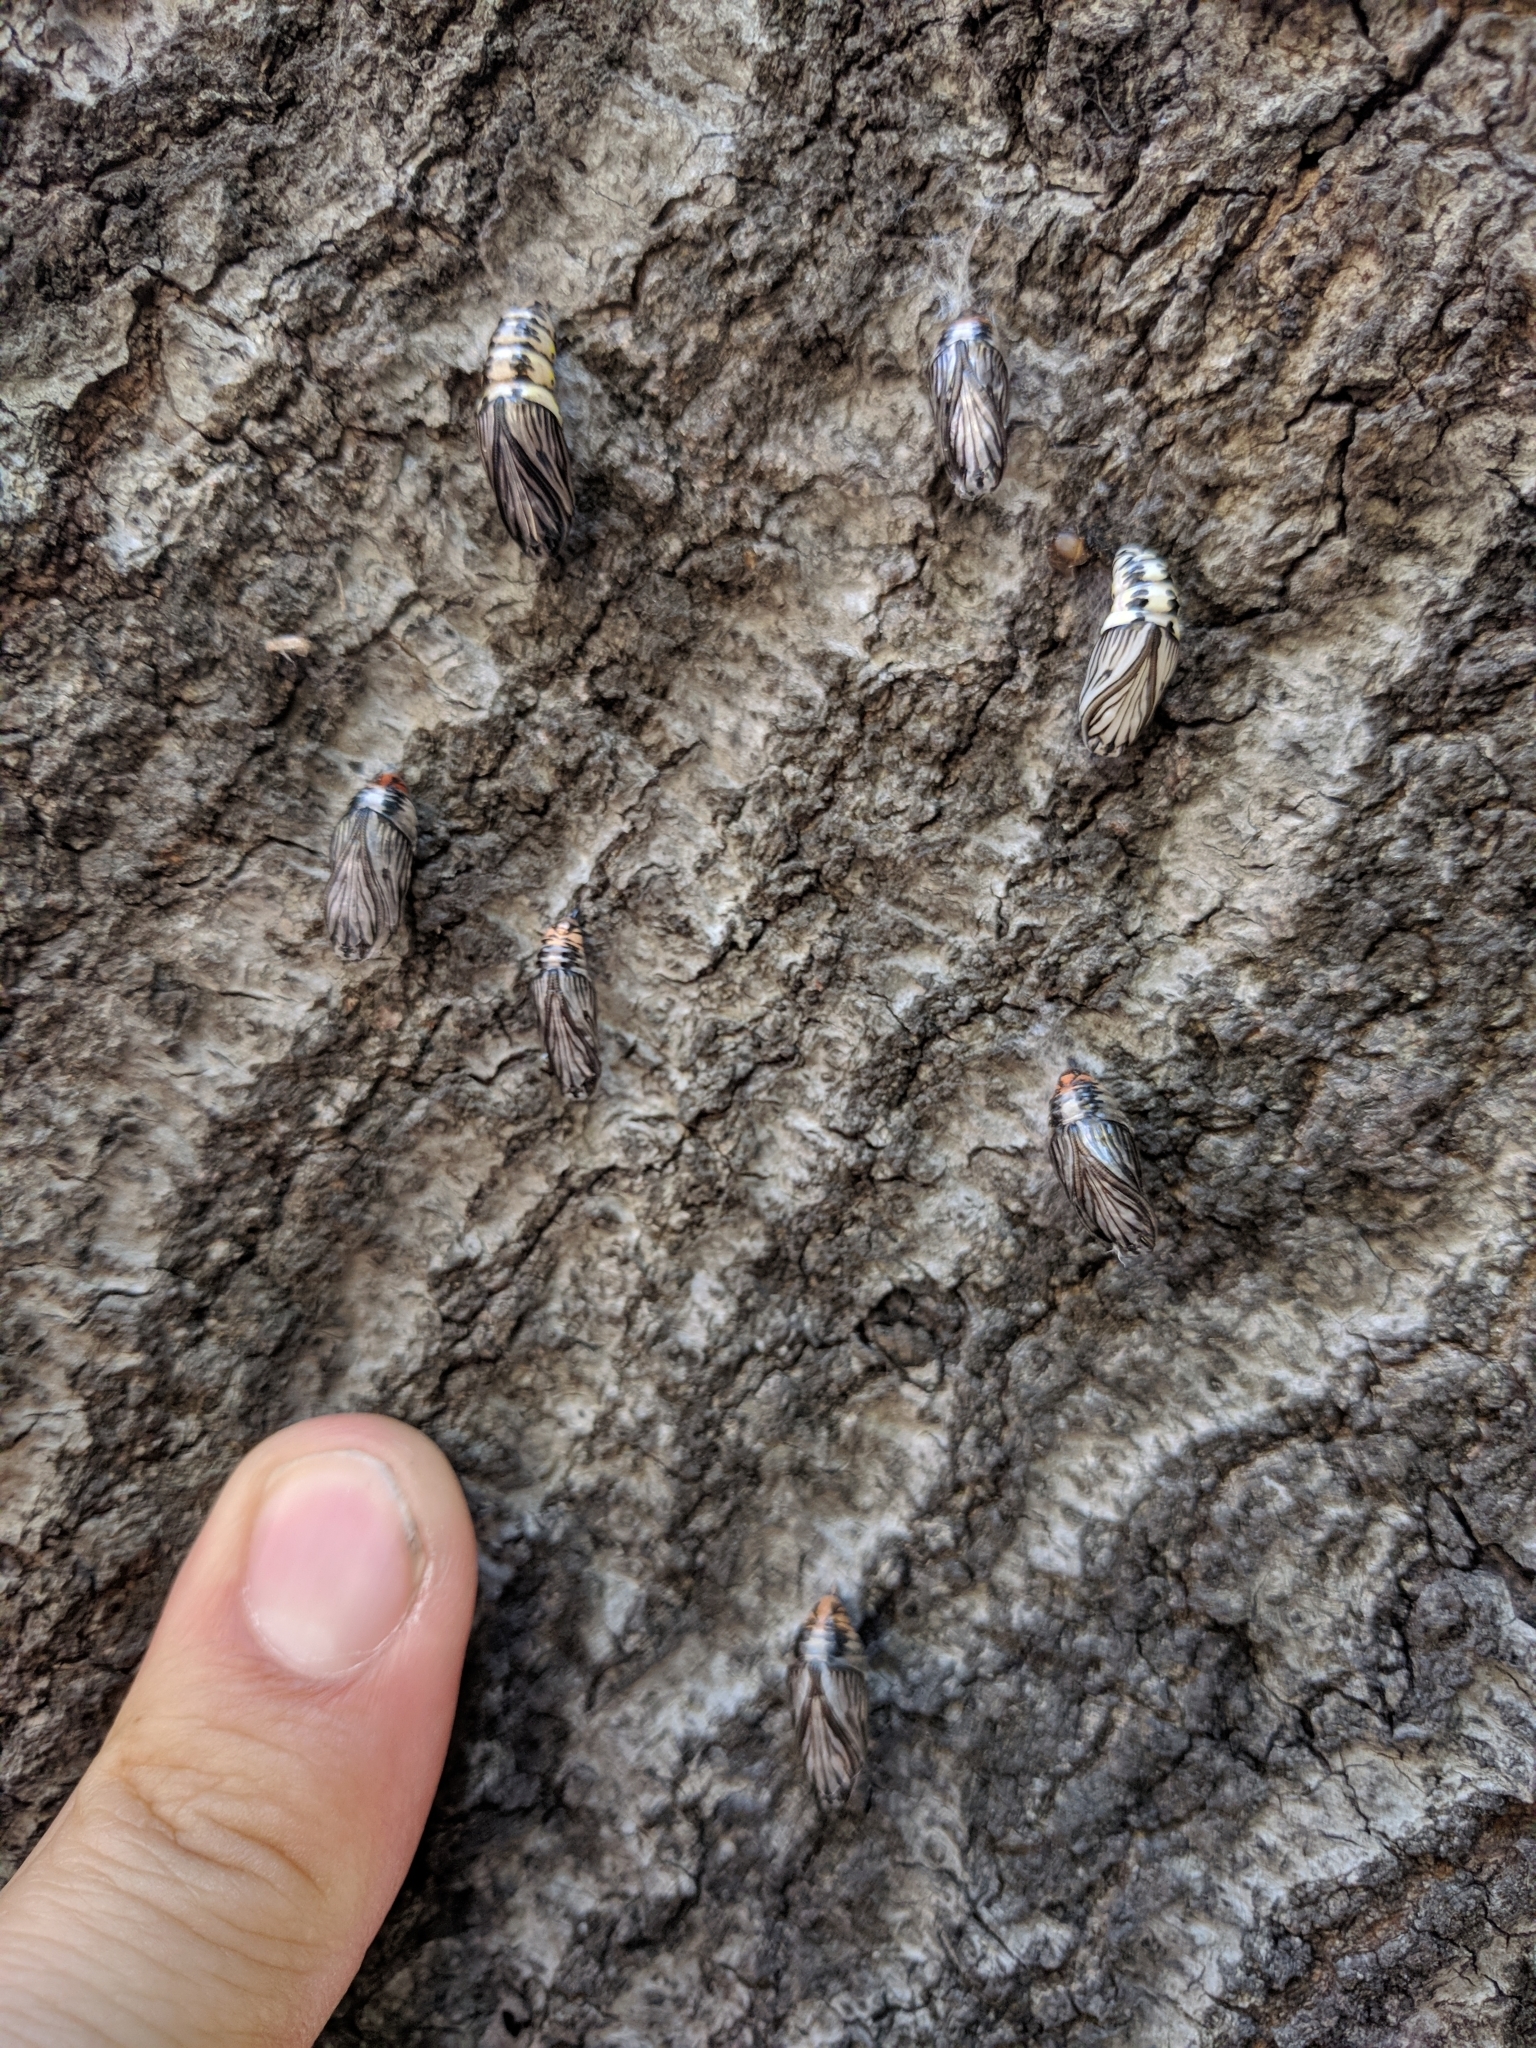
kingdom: Animalia
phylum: Arthropoda
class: Insecta
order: Lepidoptera
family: Notodontidae
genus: Phryganidia
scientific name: Phryganidia californica
